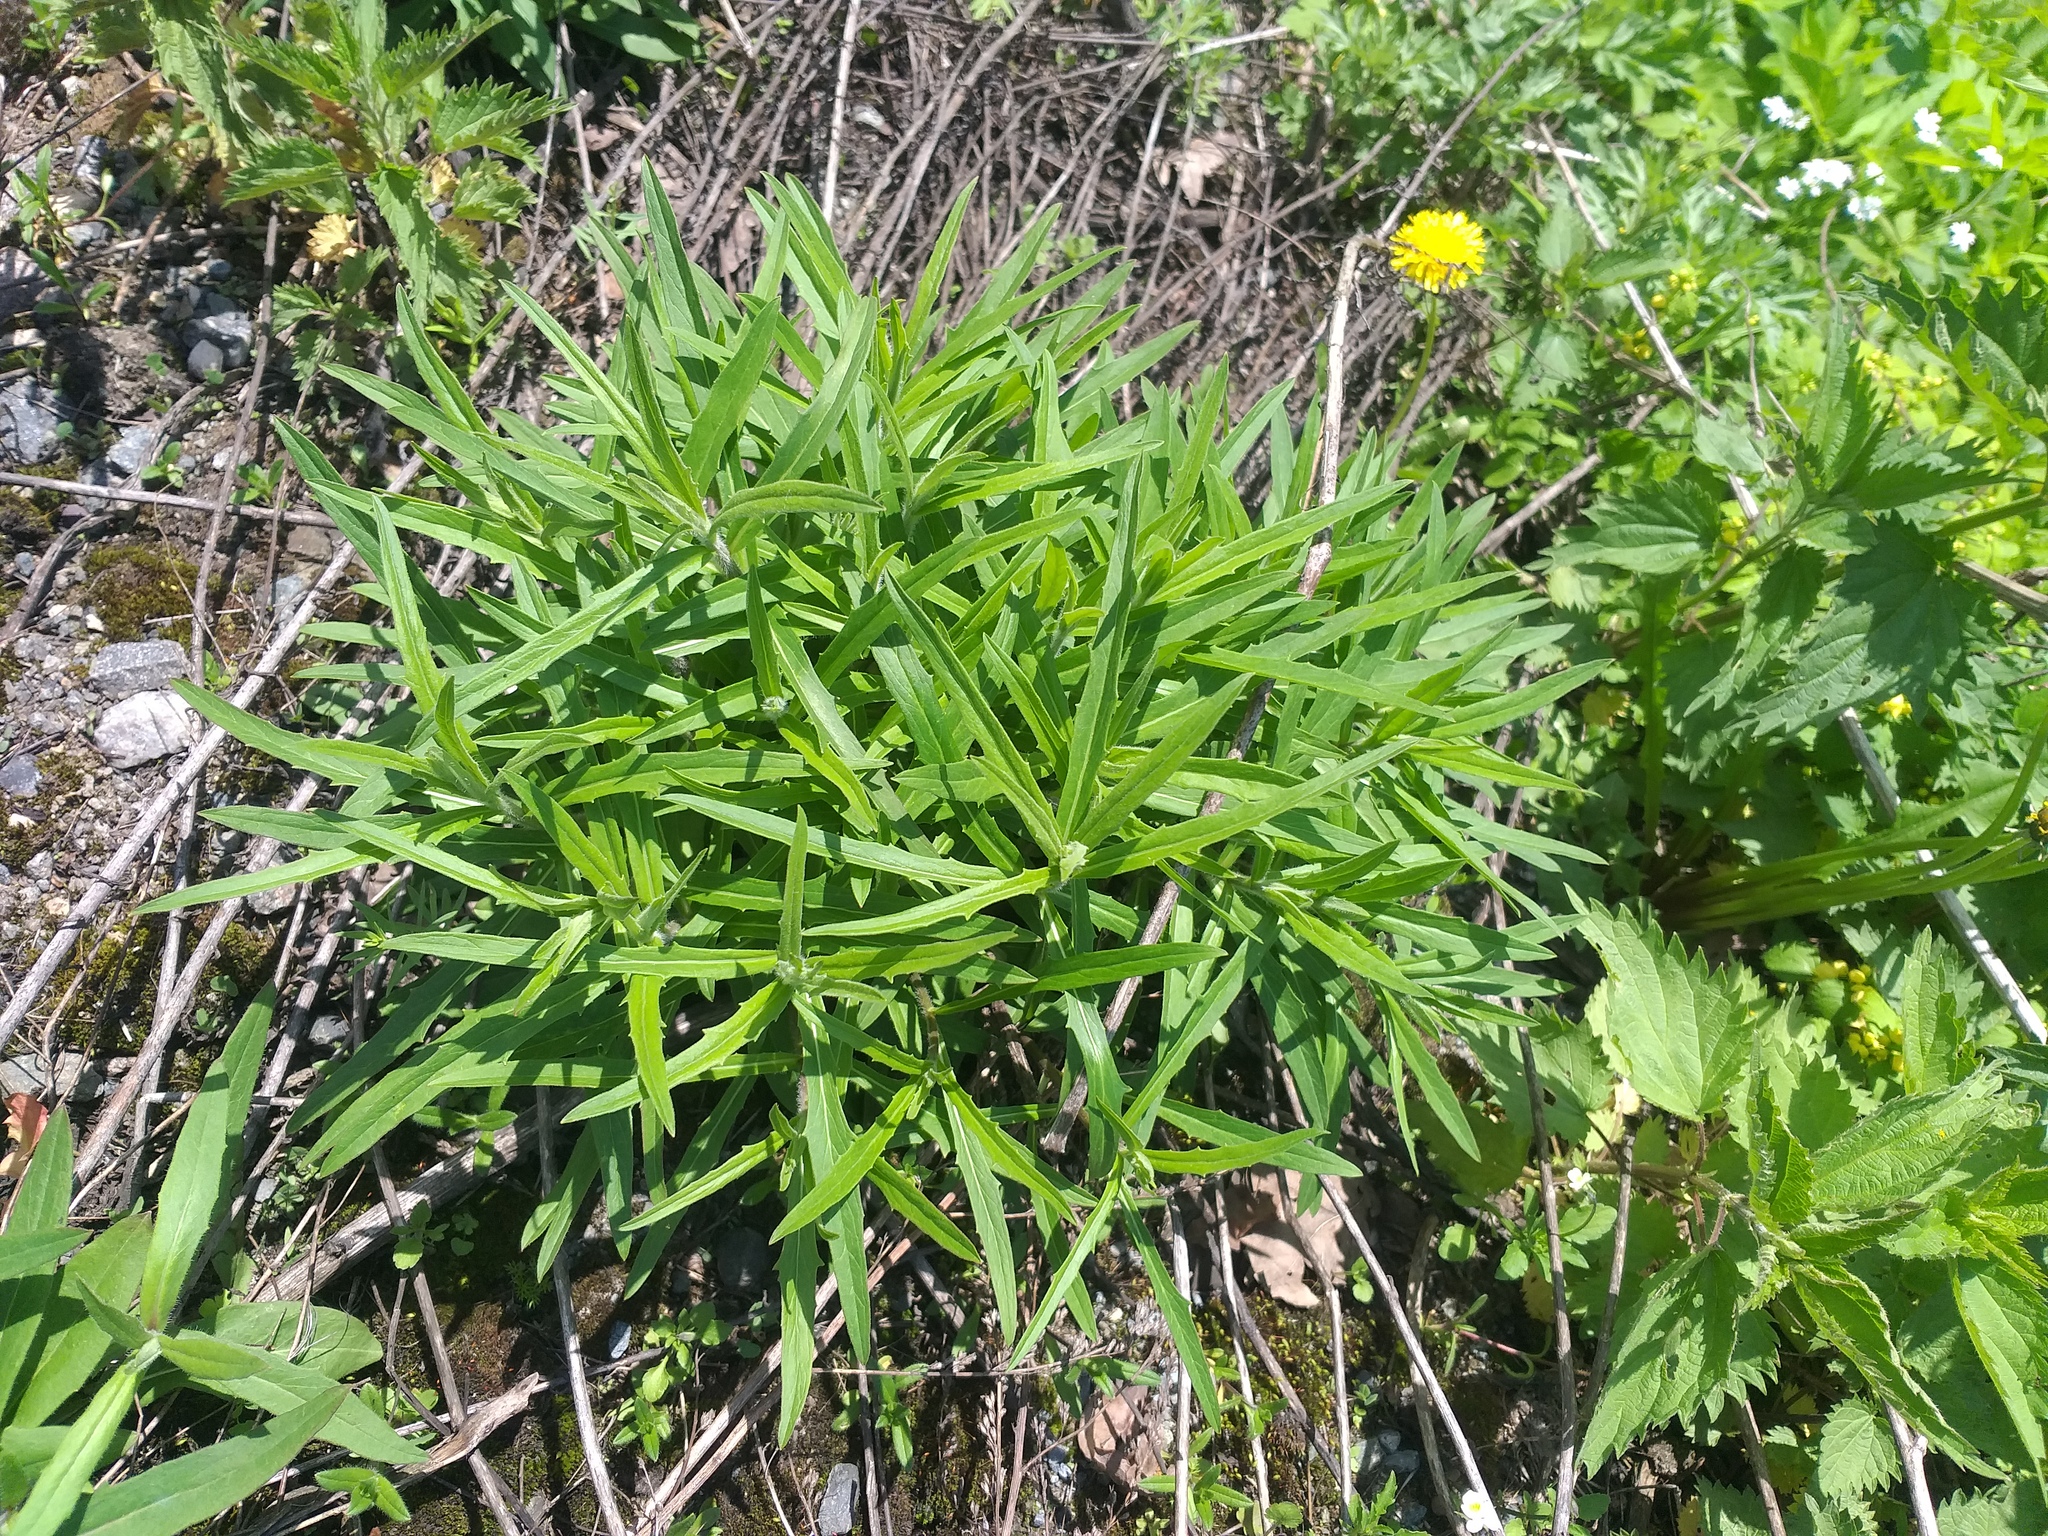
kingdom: Plantae
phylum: Tracheophyta
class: Magnoliopsida
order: Asterales
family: Asteraceae
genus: Hieracium
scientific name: Hieracium umbellatum
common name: Northern hawkweed
